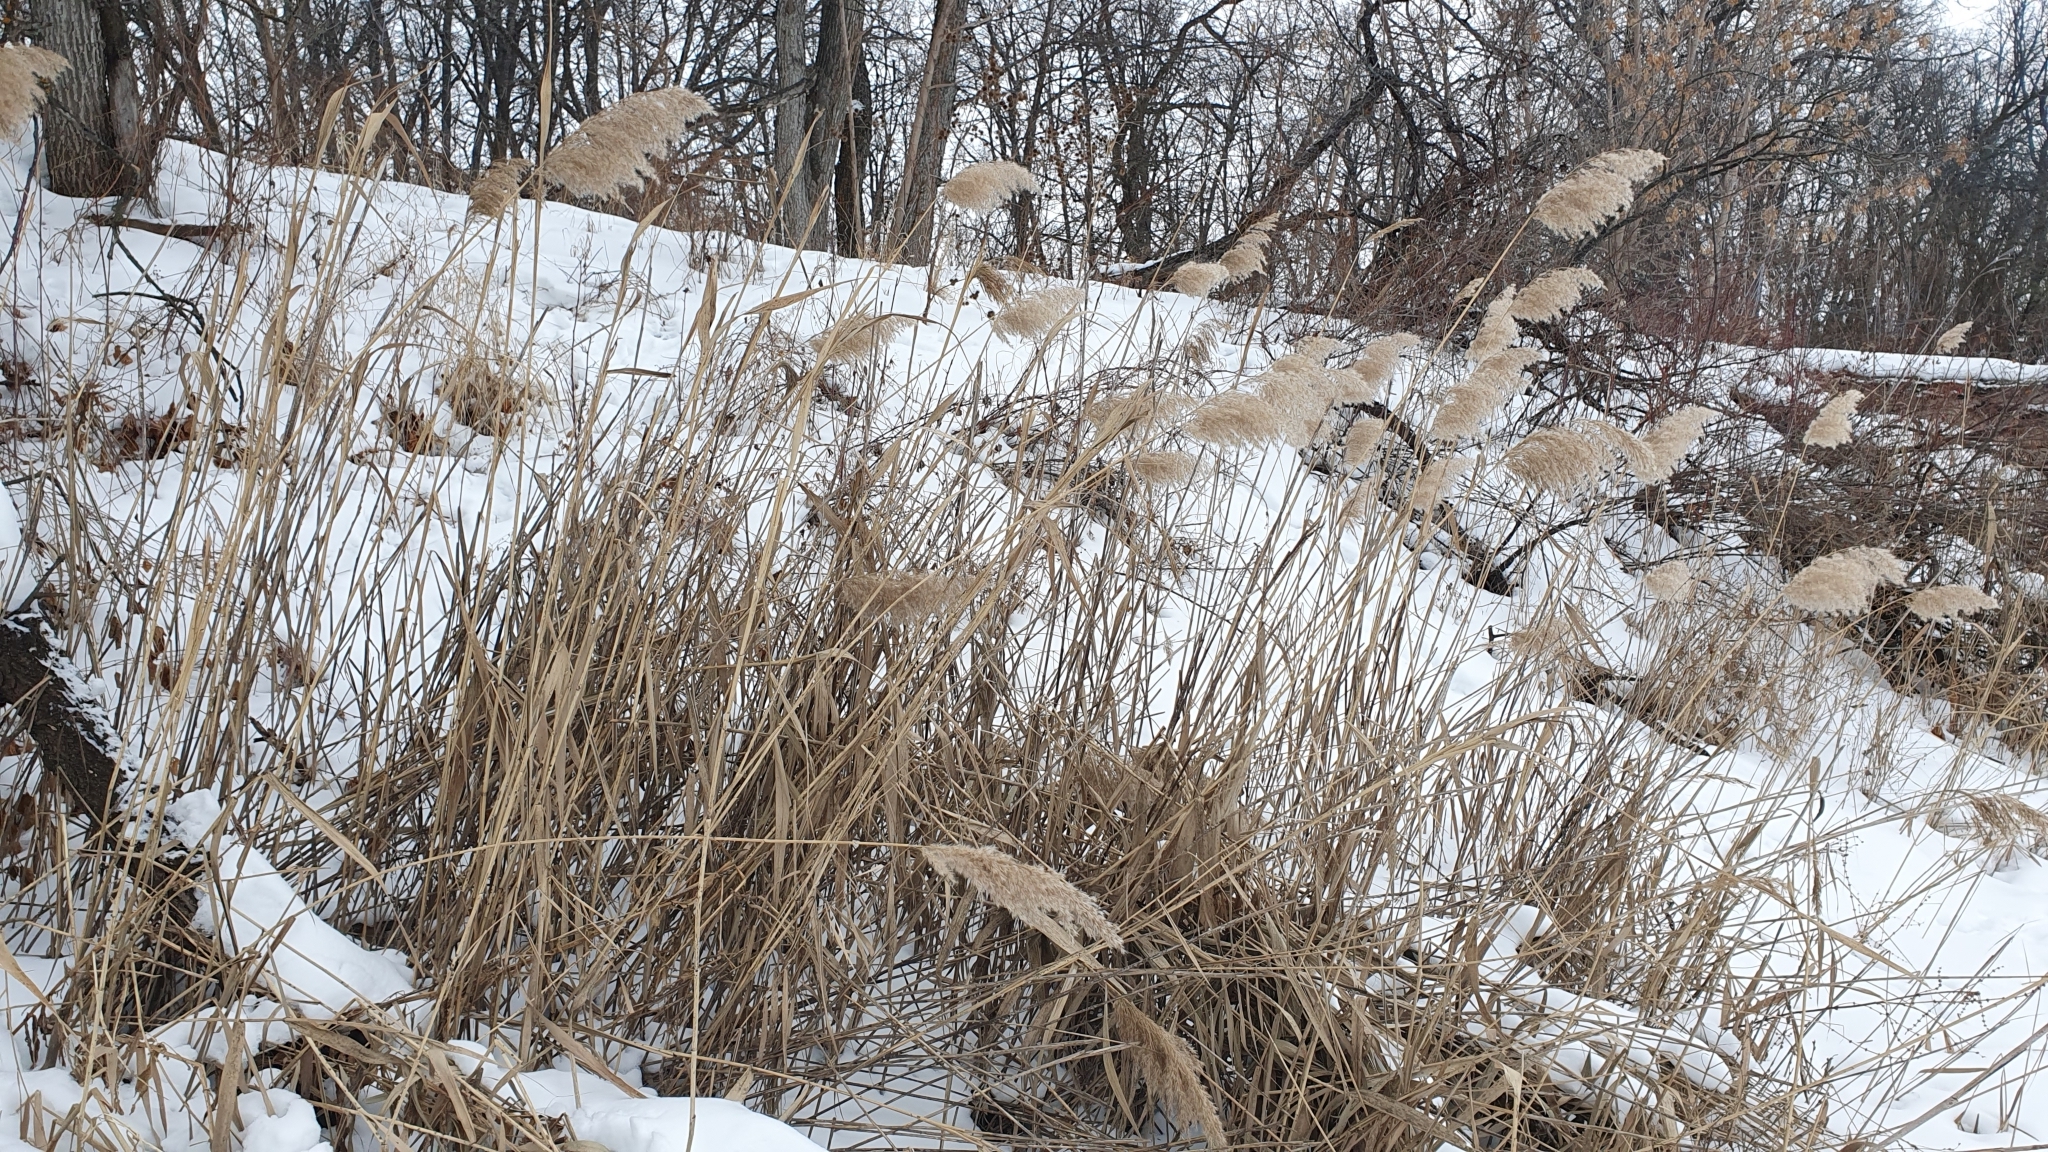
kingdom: Plantae
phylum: Tracheophyta
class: Liliopsida
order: Poales
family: Poaceae
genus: Phragmites
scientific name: Phragmites australis
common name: Common reed
